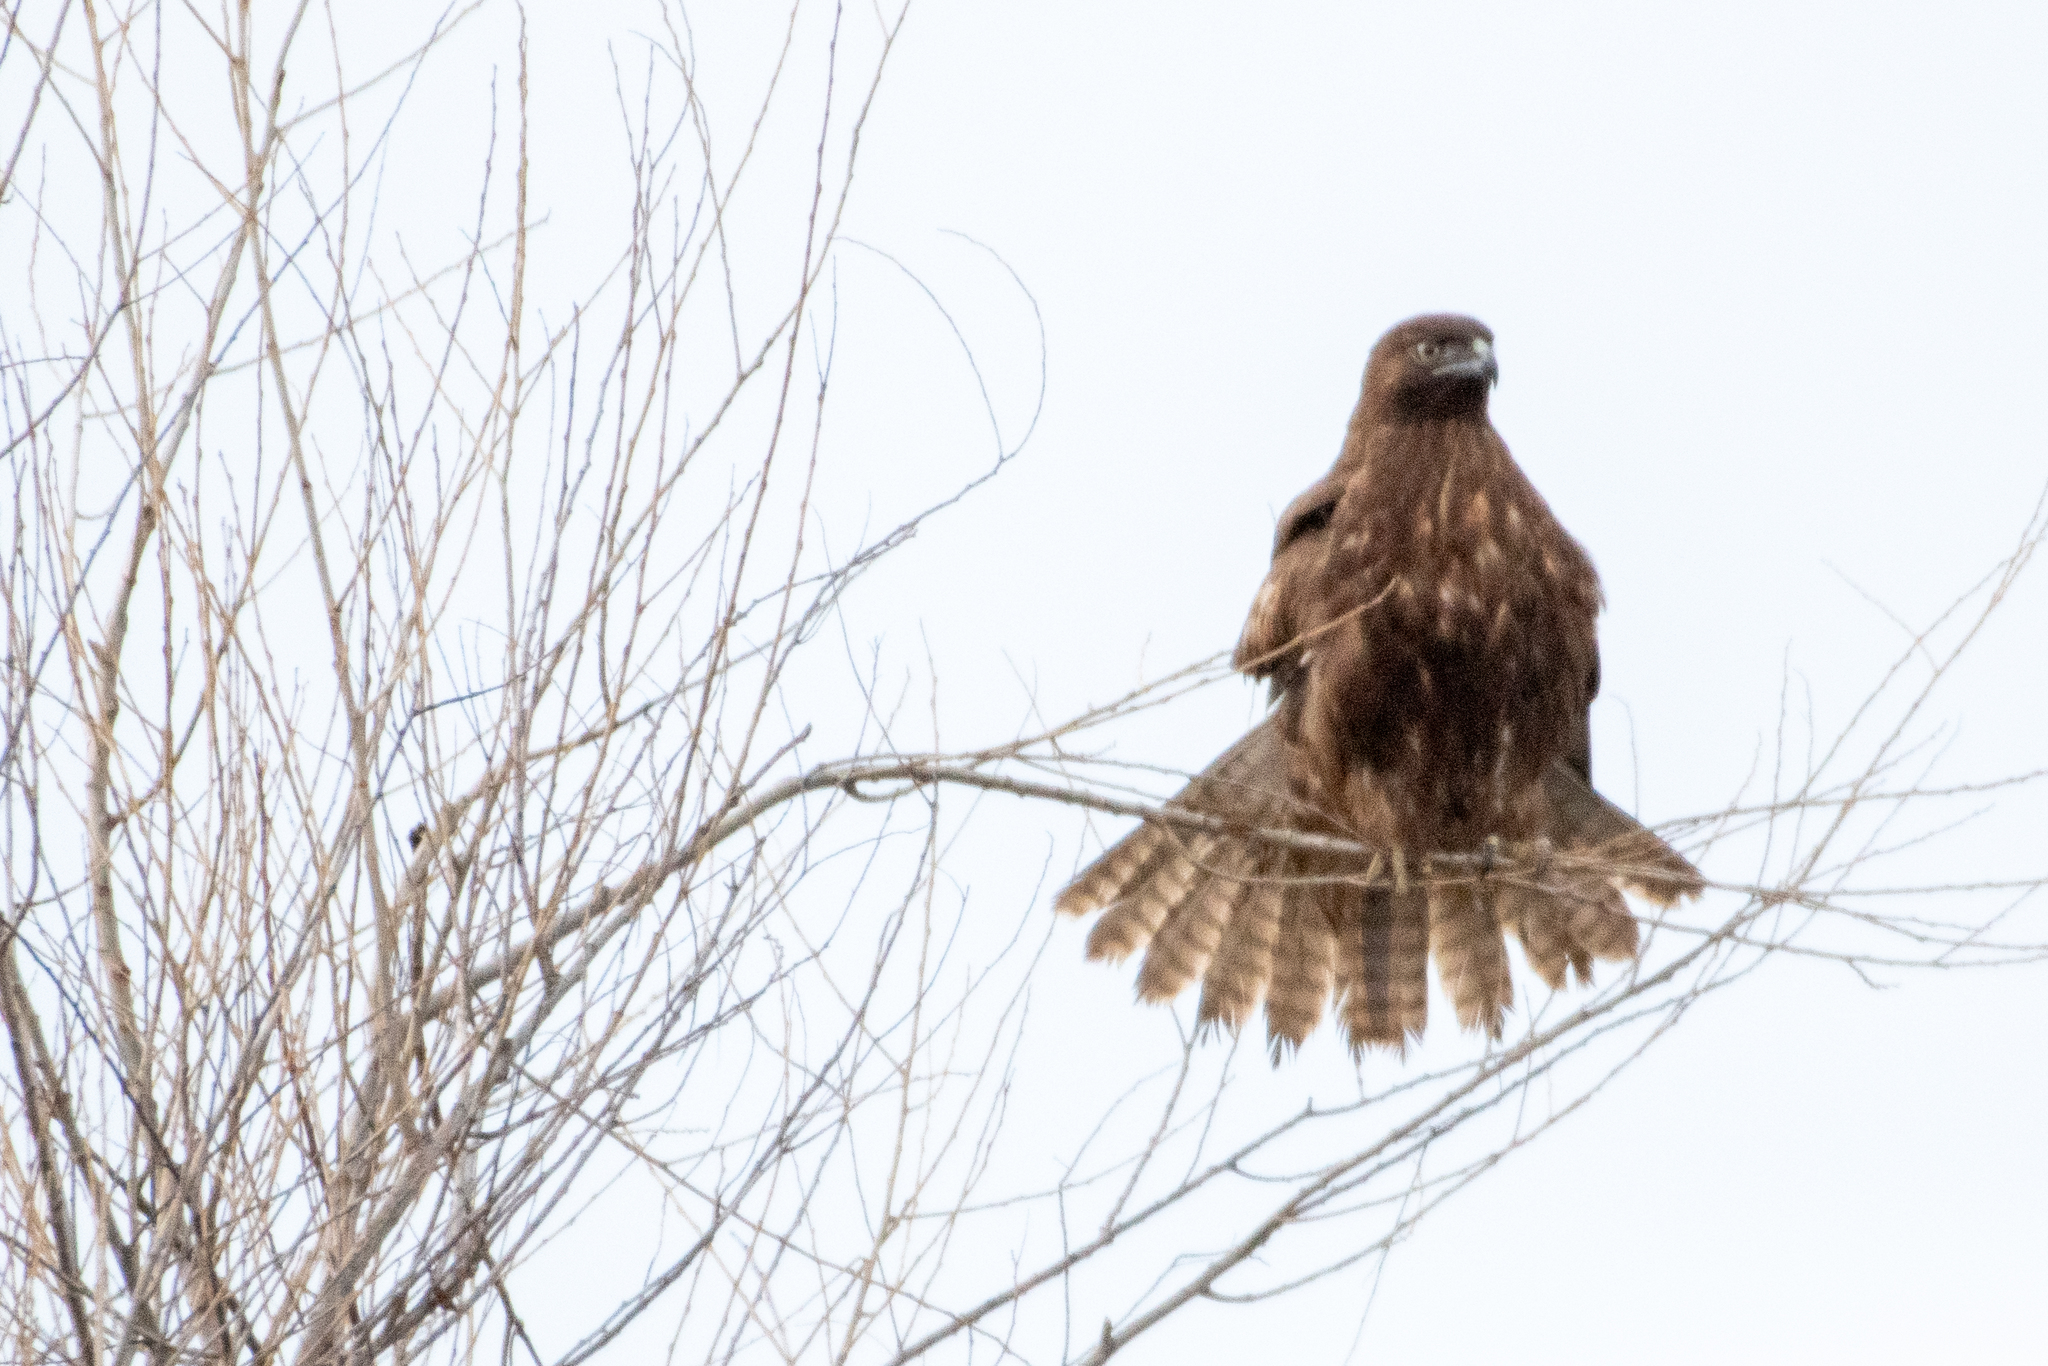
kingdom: Animalia
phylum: Chordata
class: Aves
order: Accipitriformes
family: Accipitridae
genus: Buteo
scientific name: Buteo jamaicensis
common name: Red-tailed hawk
